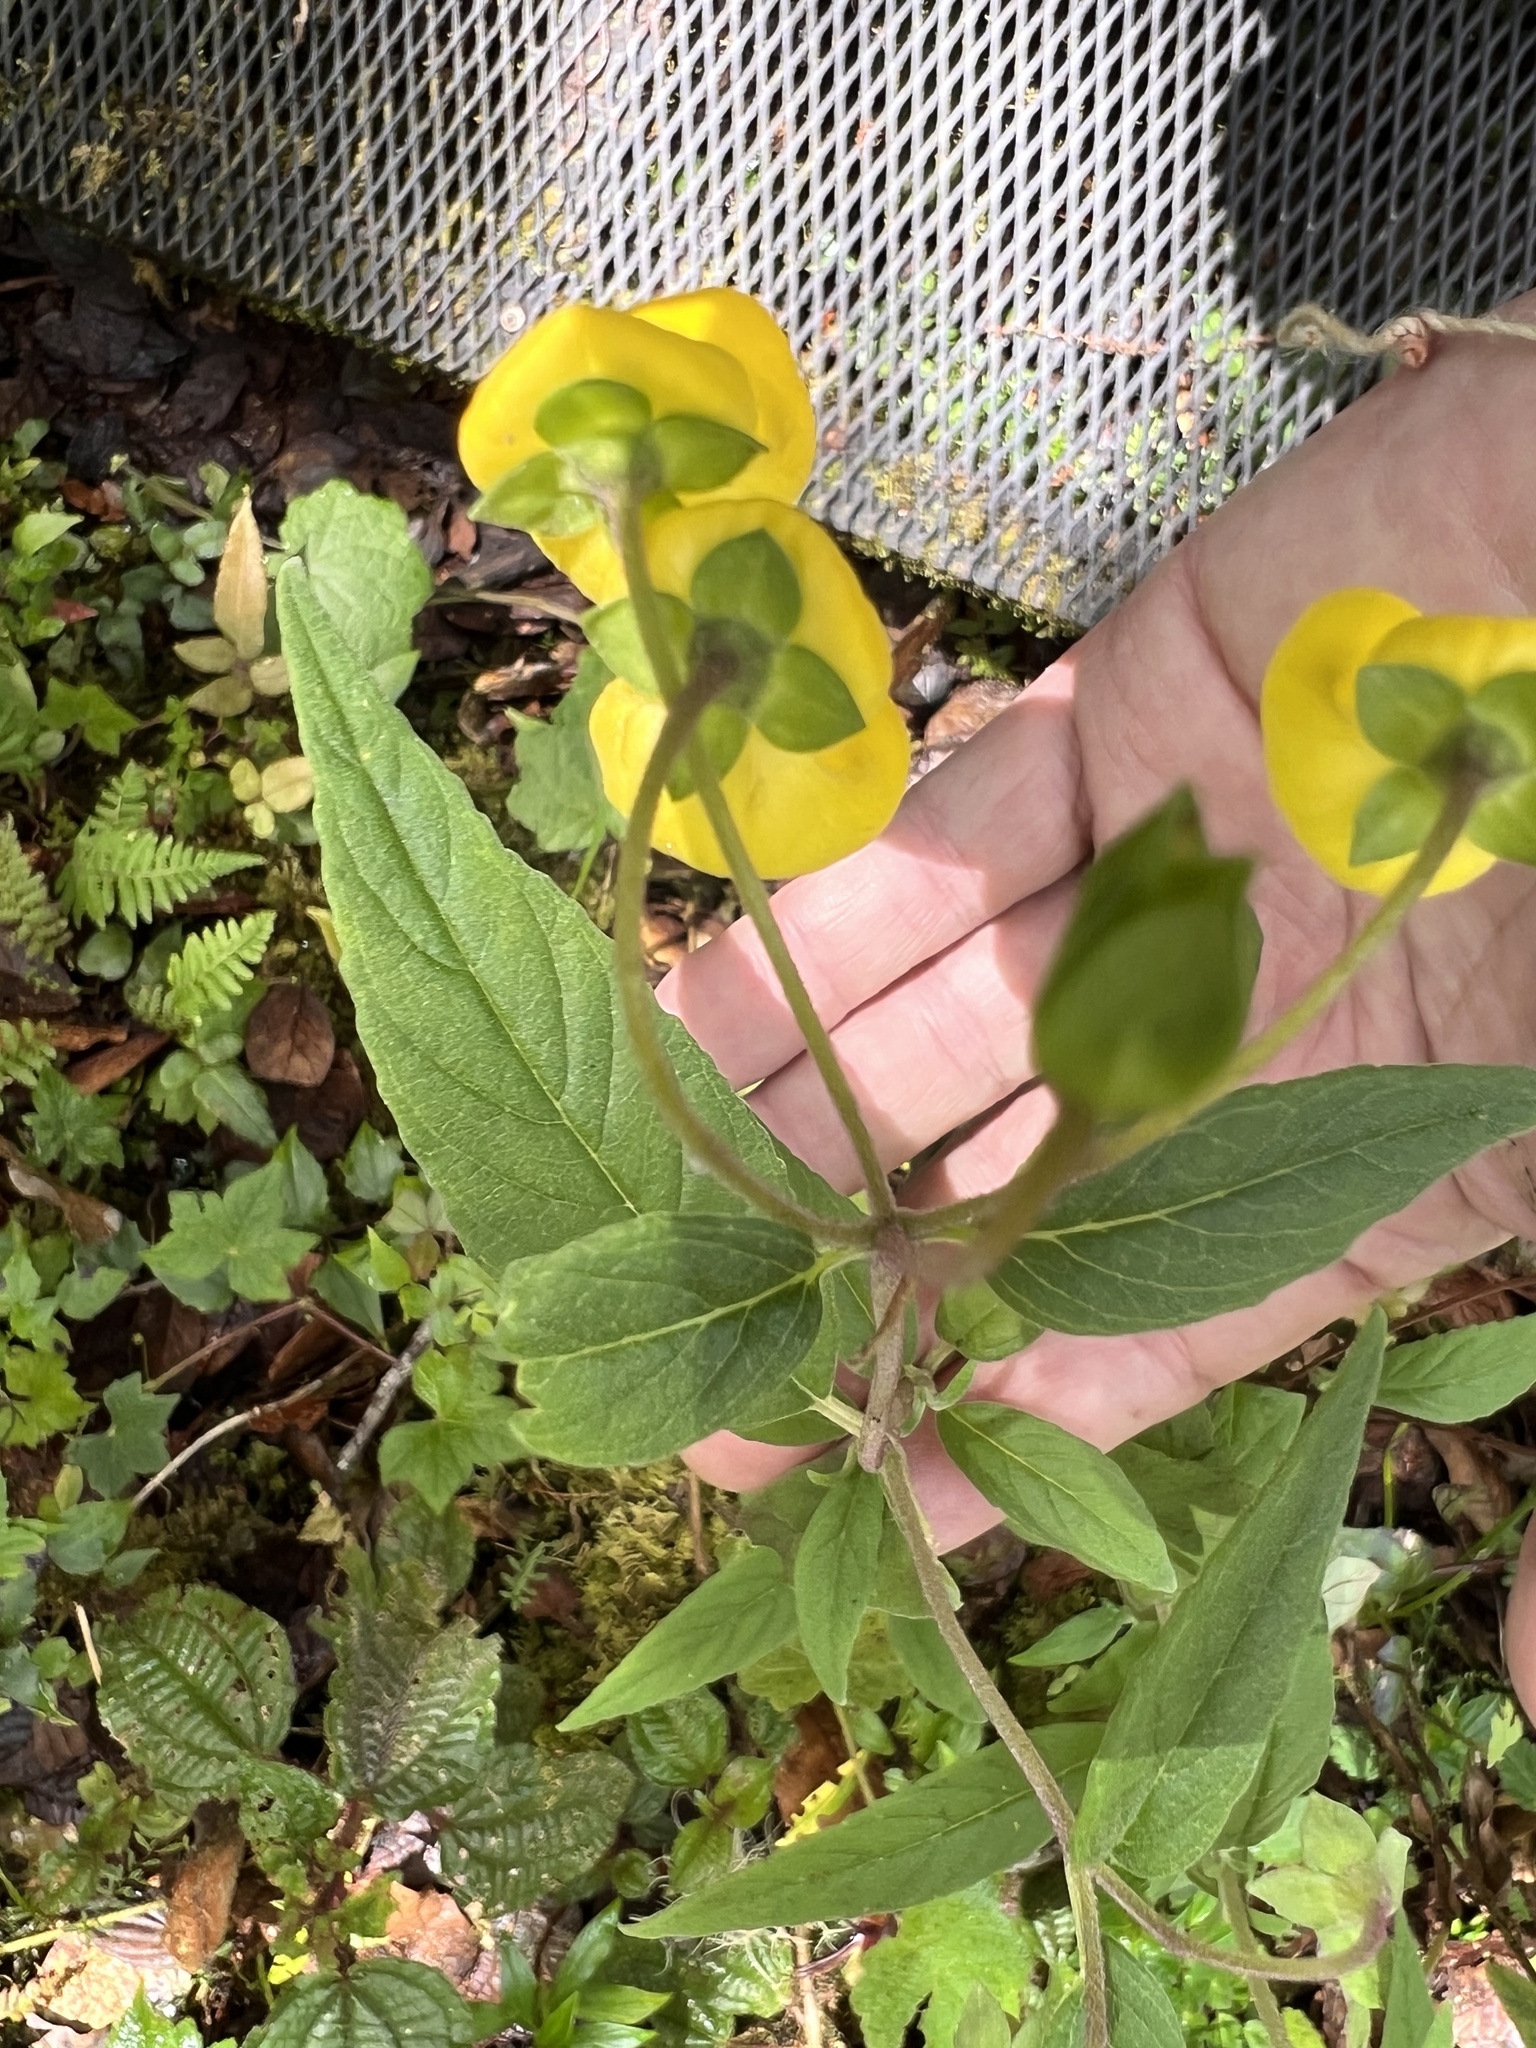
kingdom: Plantae
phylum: Tracheophyta
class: Magnoliopsida
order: Lamiales
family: Calceolariaceae
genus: Calceolaria
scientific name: Calceolaria irazuensis
